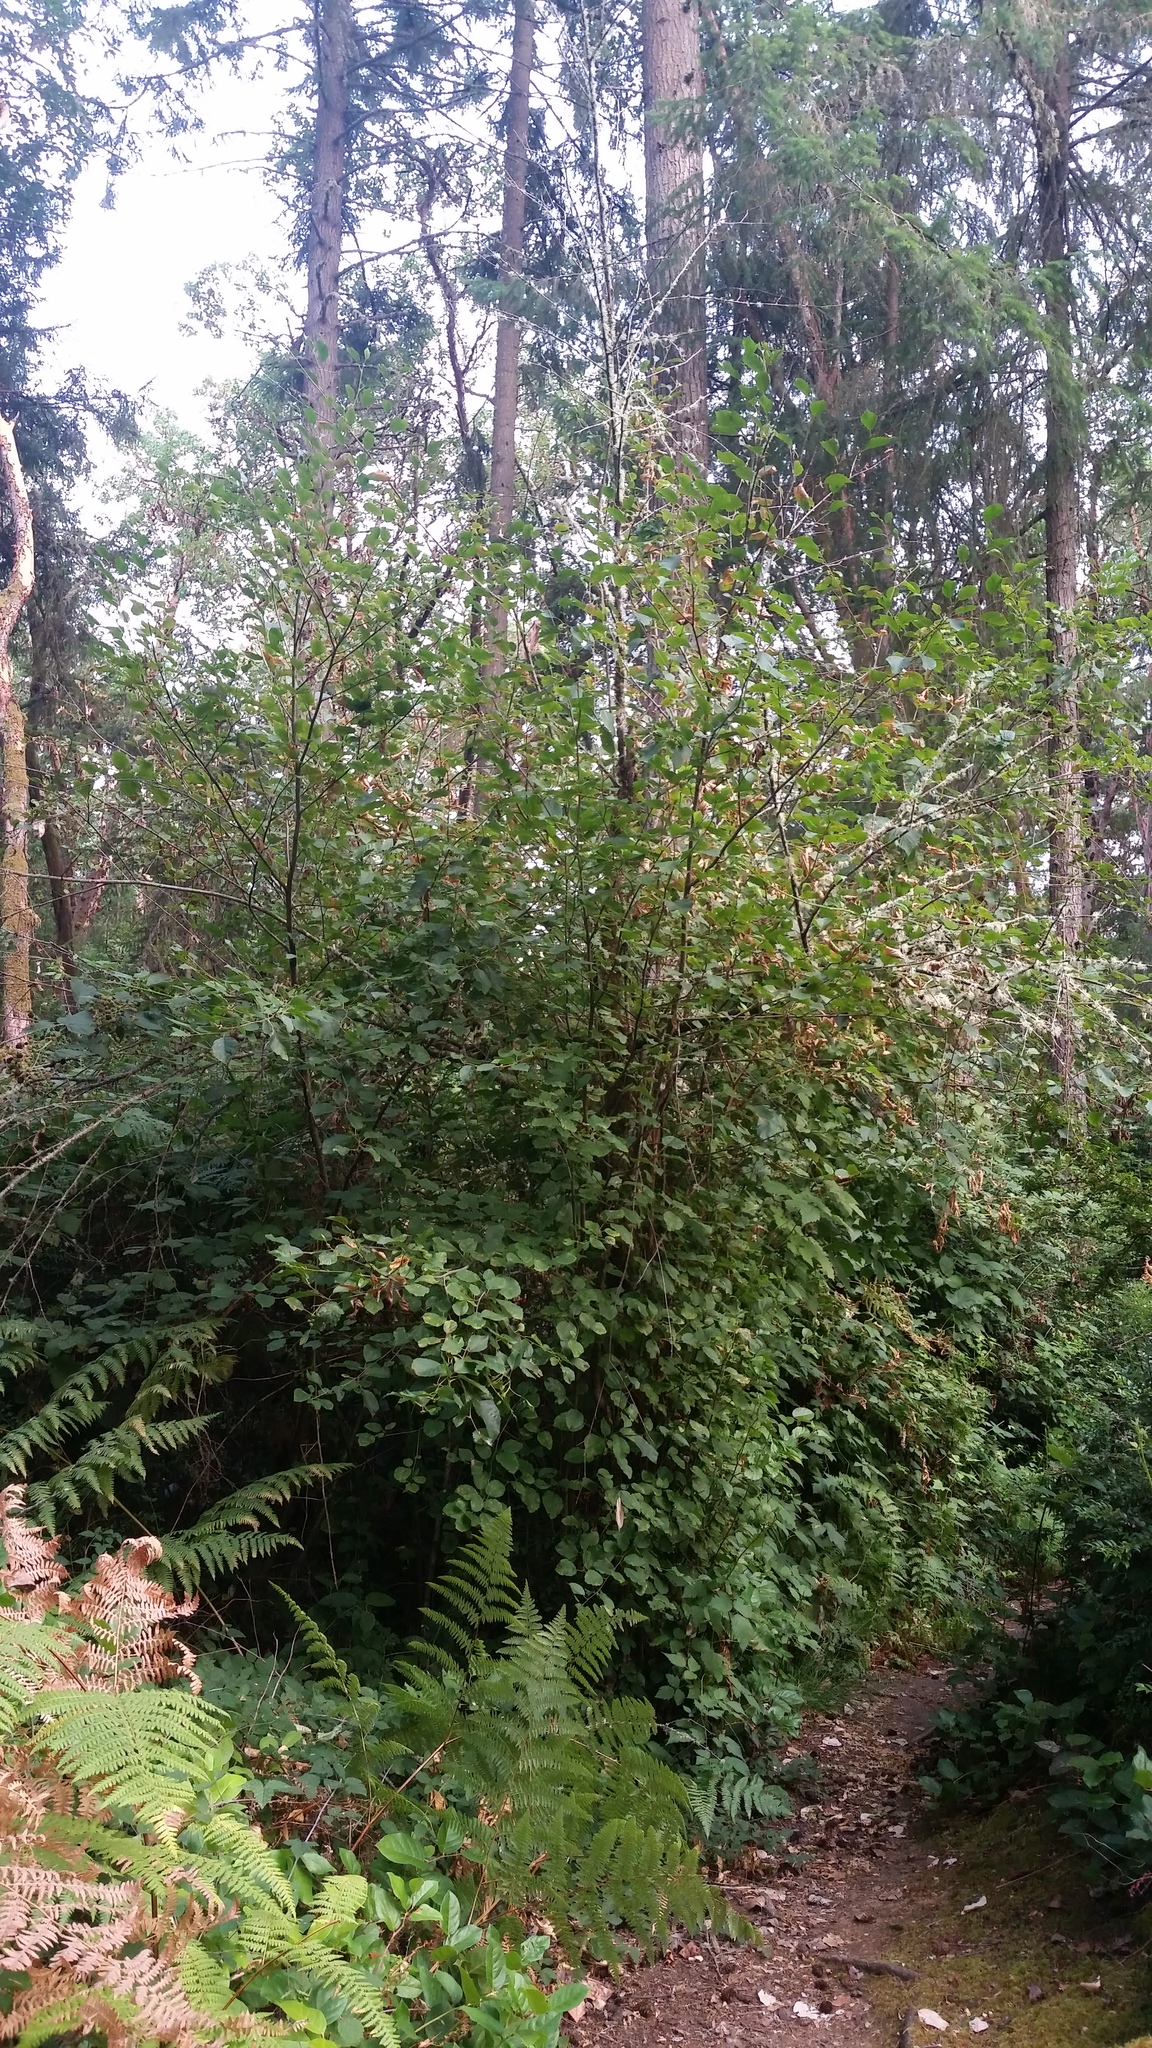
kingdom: Plantae
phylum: Tracheophyta
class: Magnoliopsida
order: Fagales
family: Betulaceae
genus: Alnus
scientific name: Alnus alnobetula
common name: Green alder
